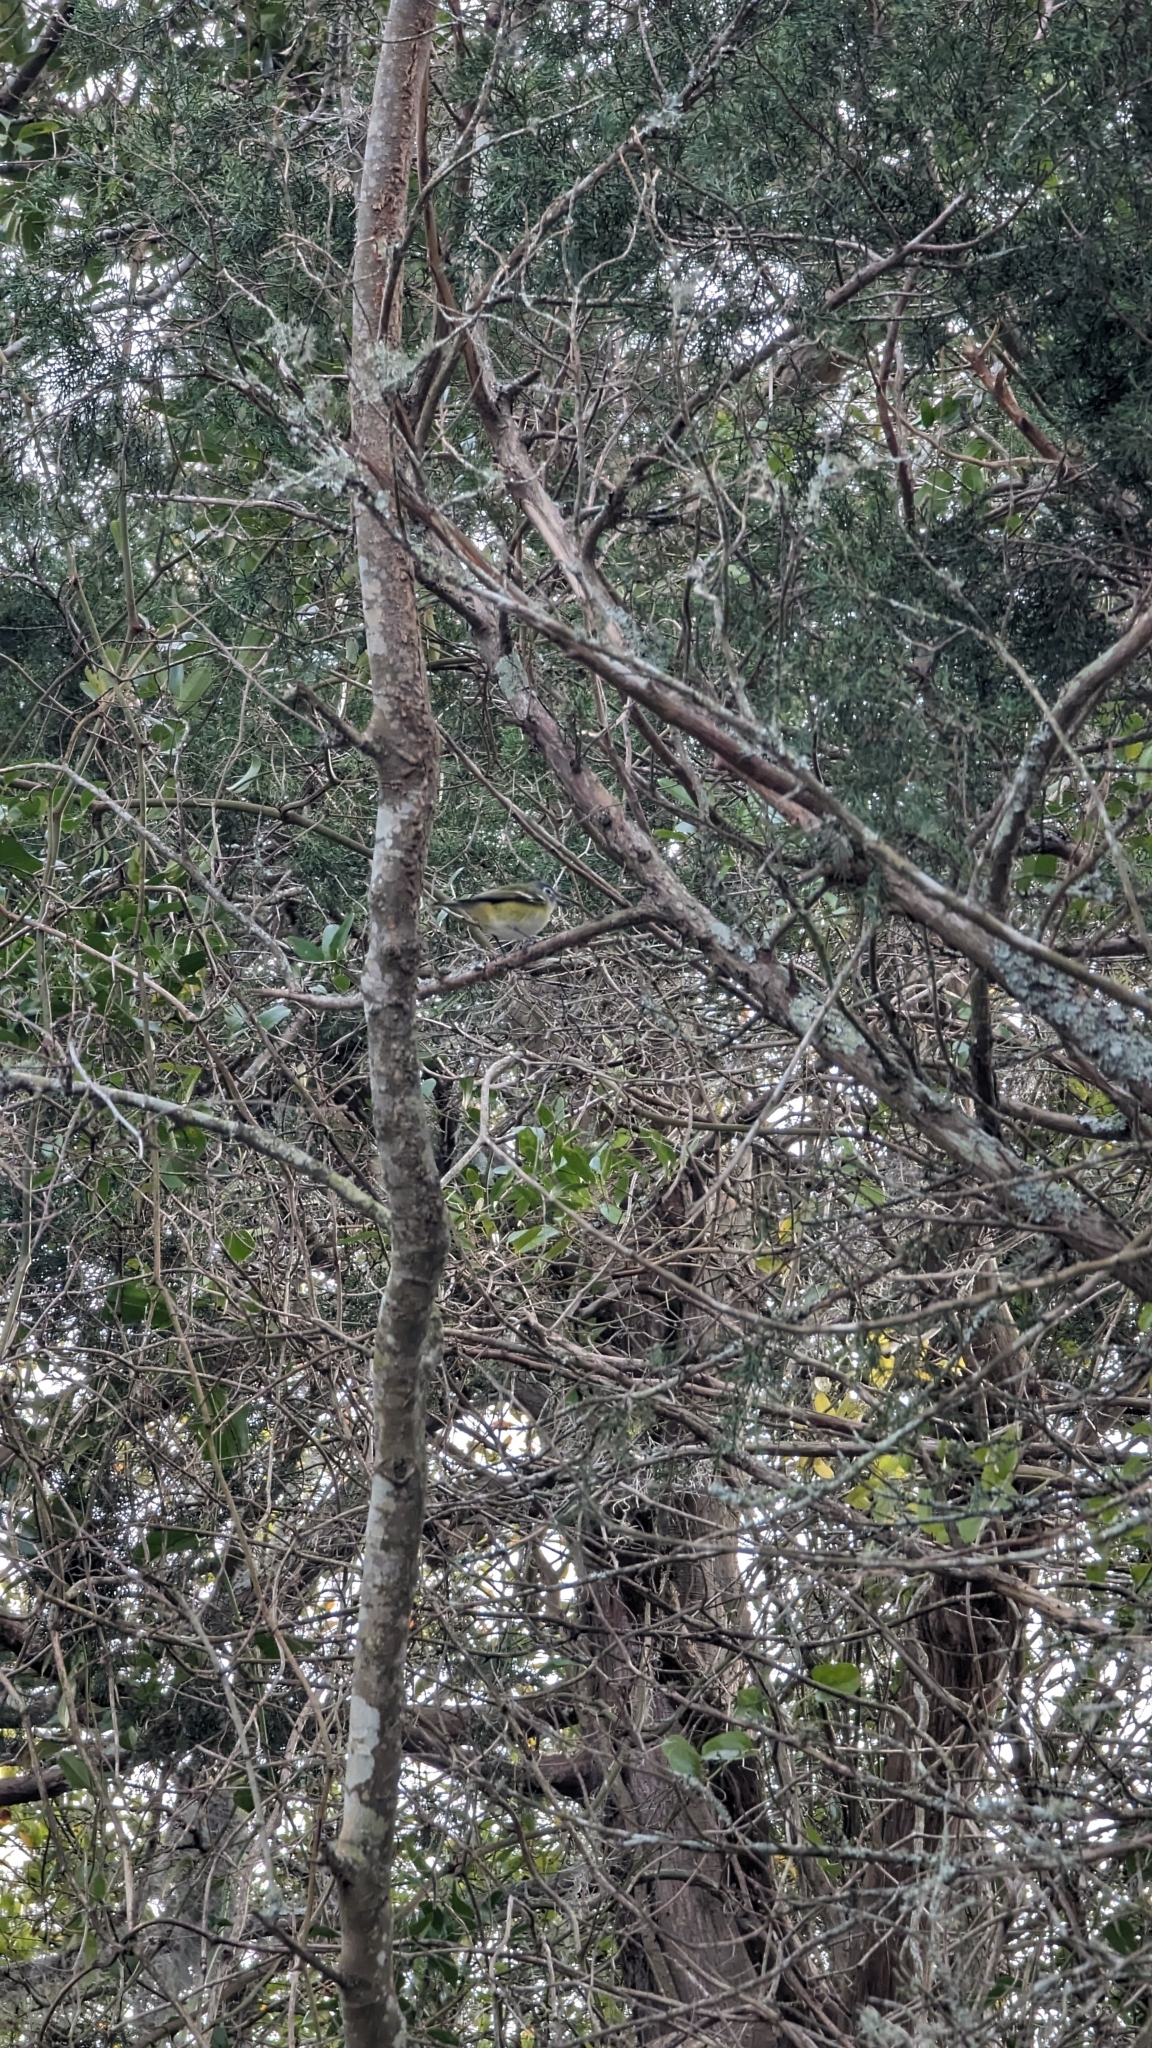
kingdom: Animalia
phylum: Chordata
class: Aves
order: Passeriformes
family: Vireonidae
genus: Vireo
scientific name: Vireo solitarius
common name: Blue-headed vireo
